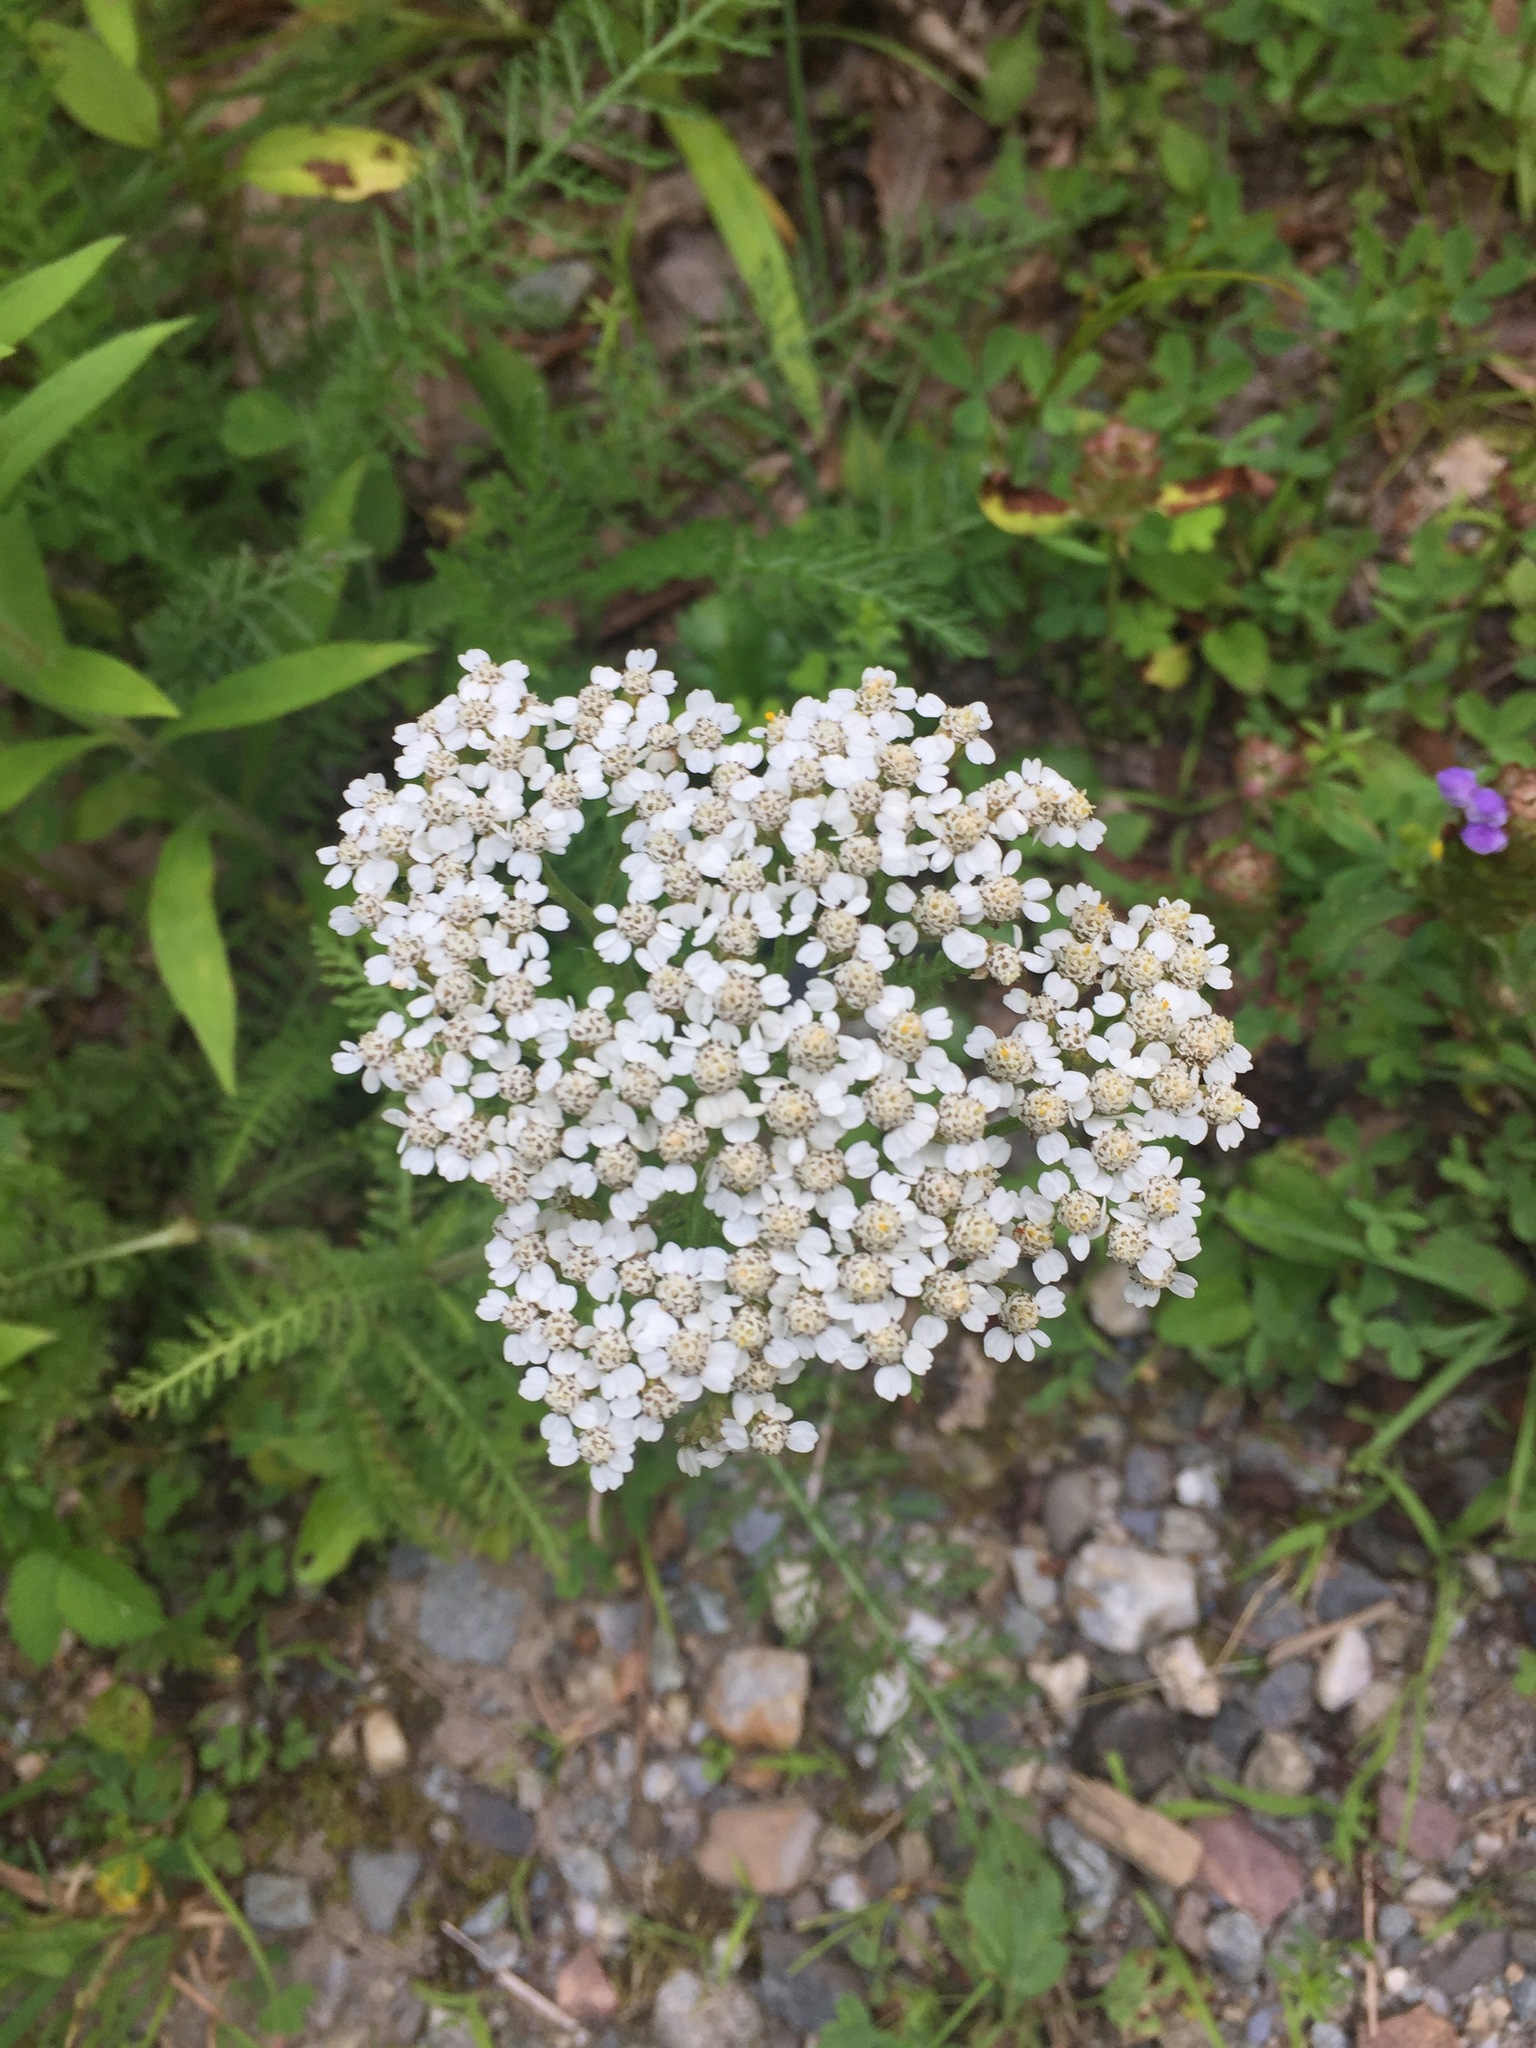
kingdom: Plantae
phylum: Tracheophyta
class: Magnoliopsida
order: Asterales
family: Asteraceae
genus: Achillea
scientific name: Achillea millefolium
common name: Yarrow
